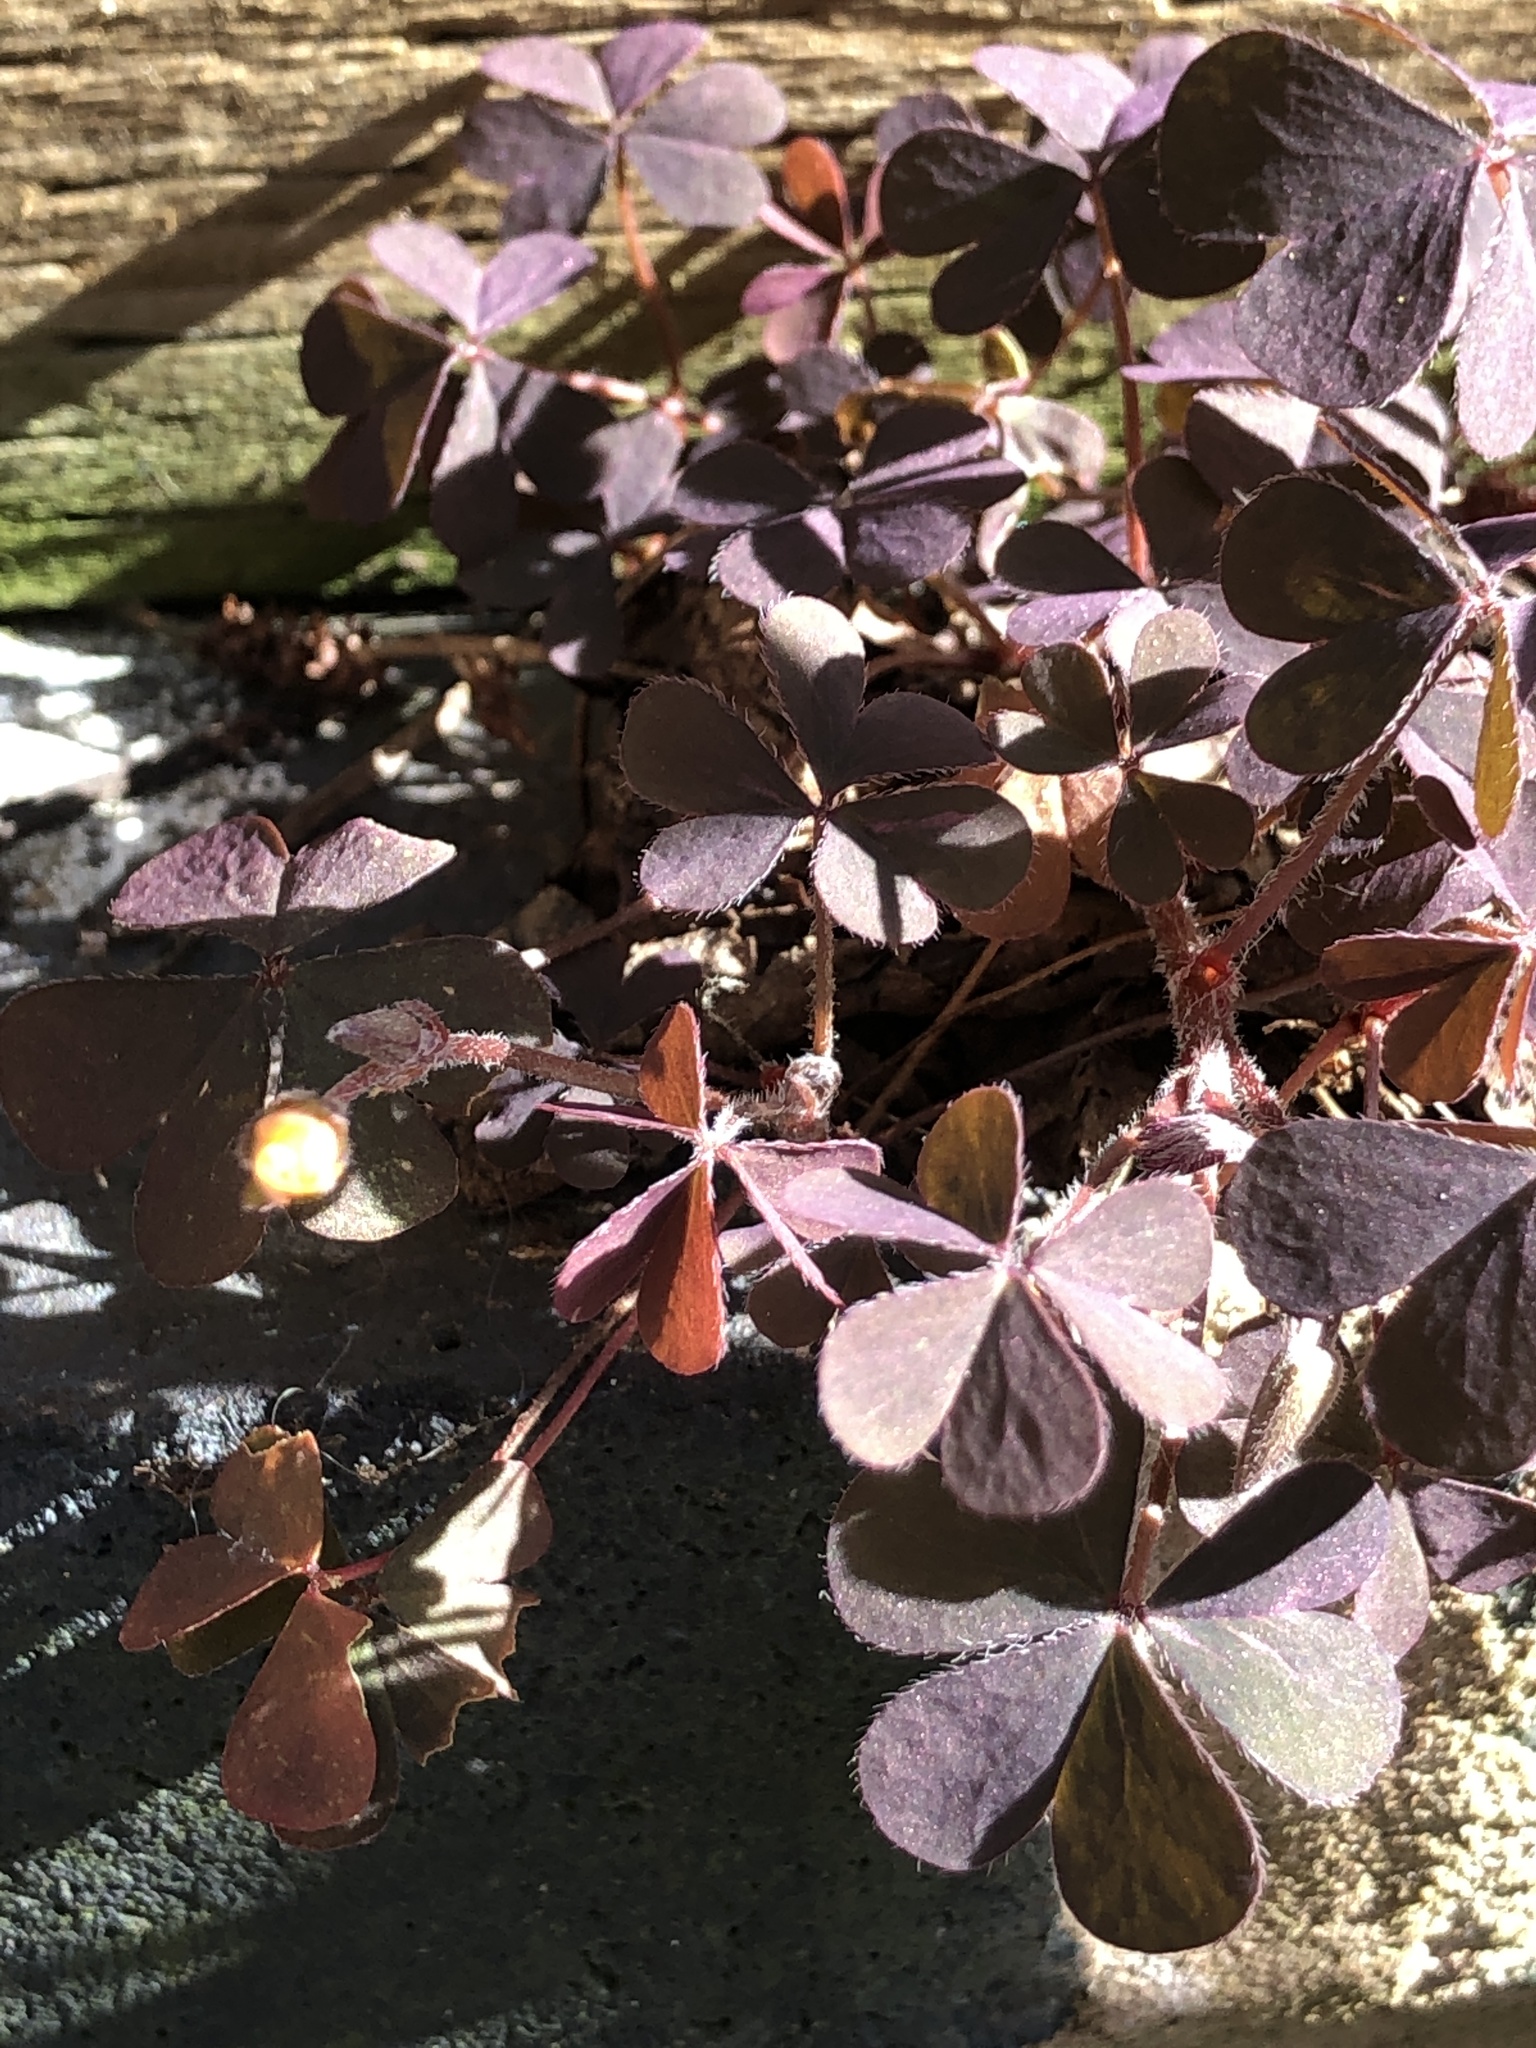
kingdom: Plantae
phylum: Tracheophyta
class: Magnoliopsida
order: Oxalidales
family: Oxalidaceae
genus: Oxalis
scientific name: Oxalis corniculata
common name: Procumbent yellow-sorrel
